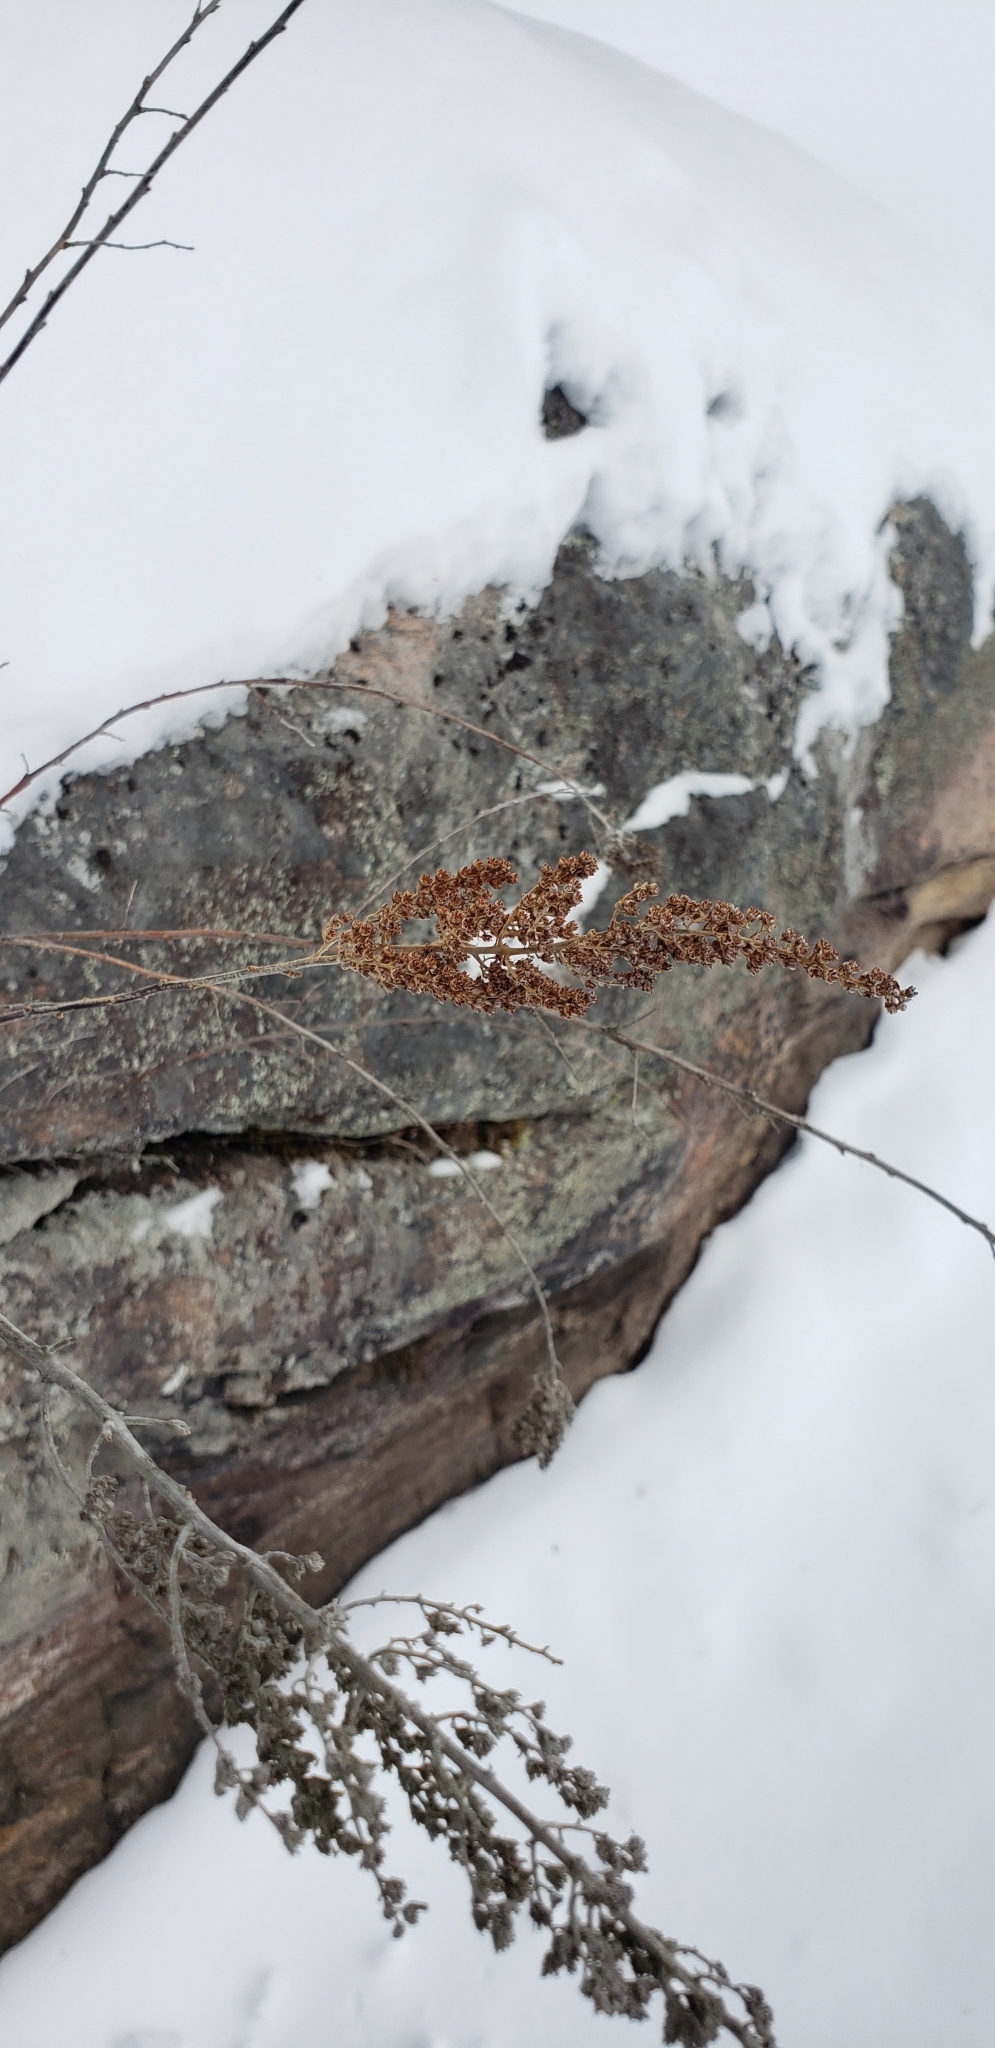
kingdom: Plantae
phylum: Tracheophyta
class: Magnoliopsida
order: Rosales
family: Rosaceae
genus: Spiraea
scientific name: Spiraea tomentosa
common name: Hardhack
